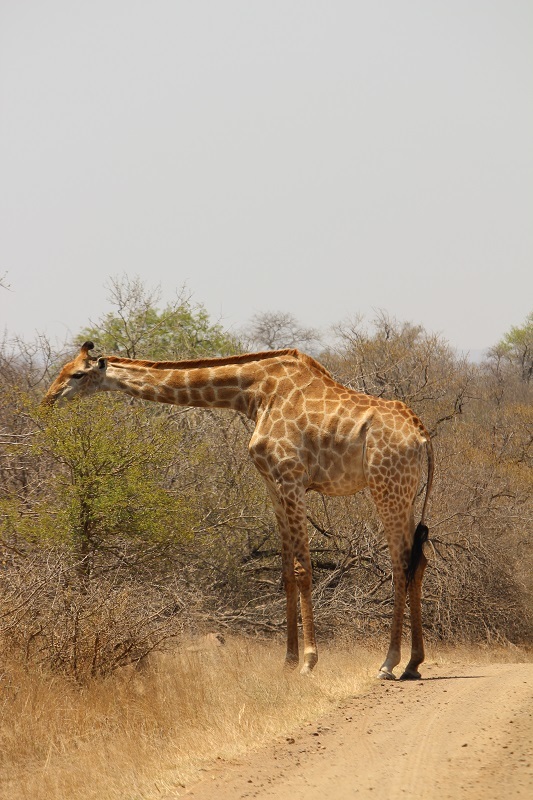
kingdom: Animalia
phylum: Chordata
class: Mammalia
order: Artiodactyla
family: Giraffidae
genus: Giraffa
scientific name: Giraffa giraffa
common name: Southern giraffe
